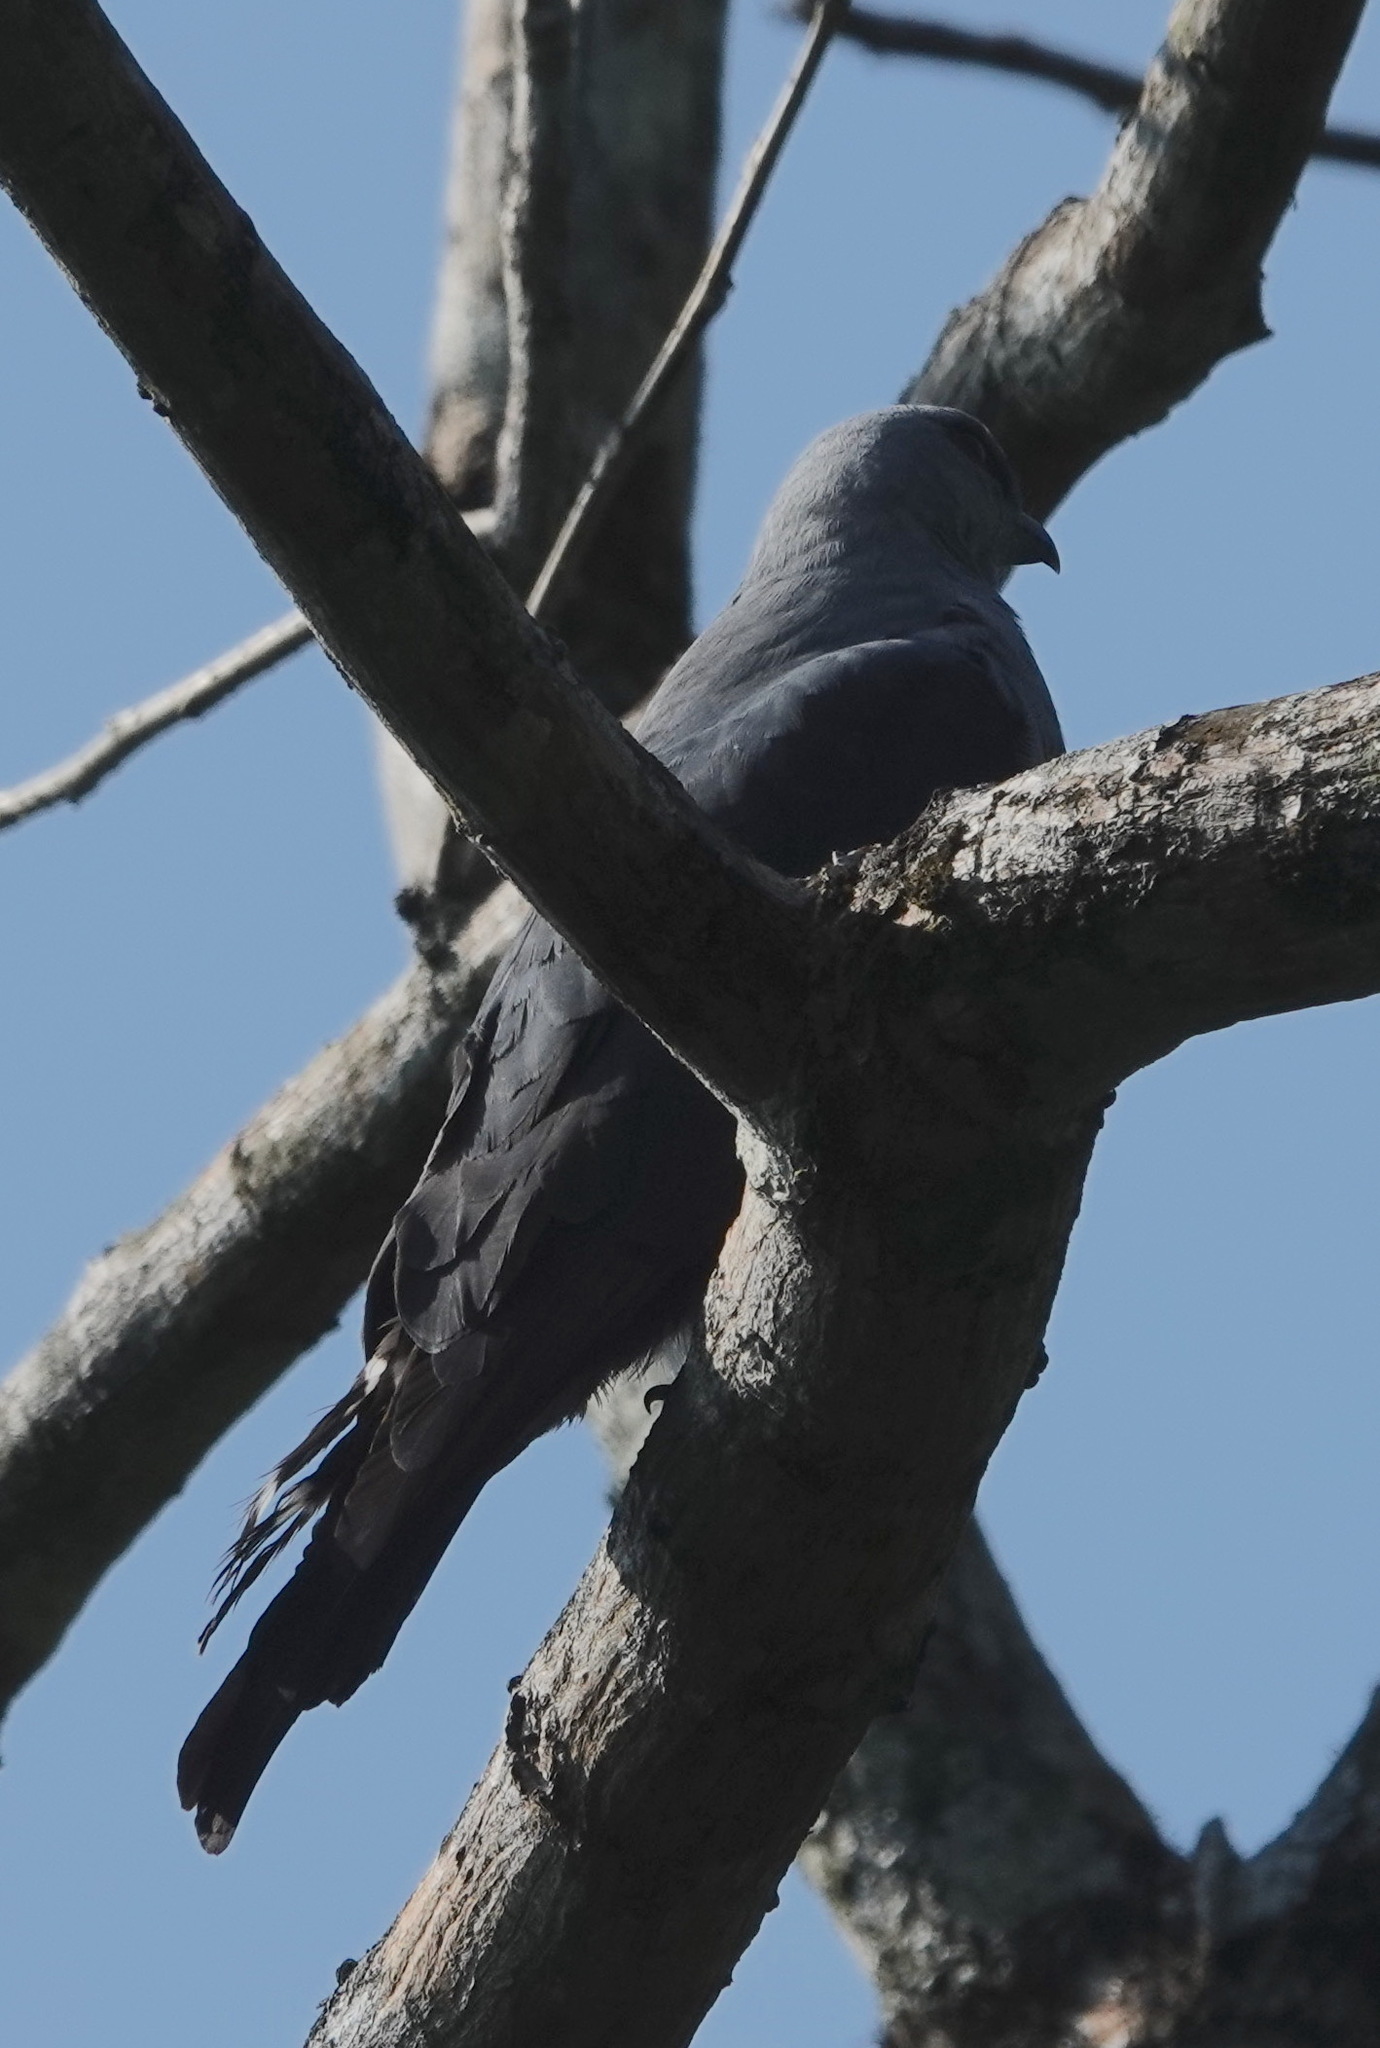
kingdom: Animalia
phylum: Chordata
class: Aves
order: Accipitriformes
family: Accipitridae
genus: Ictinia
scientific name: Ictinia plumbea
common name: Plumbeous kite
